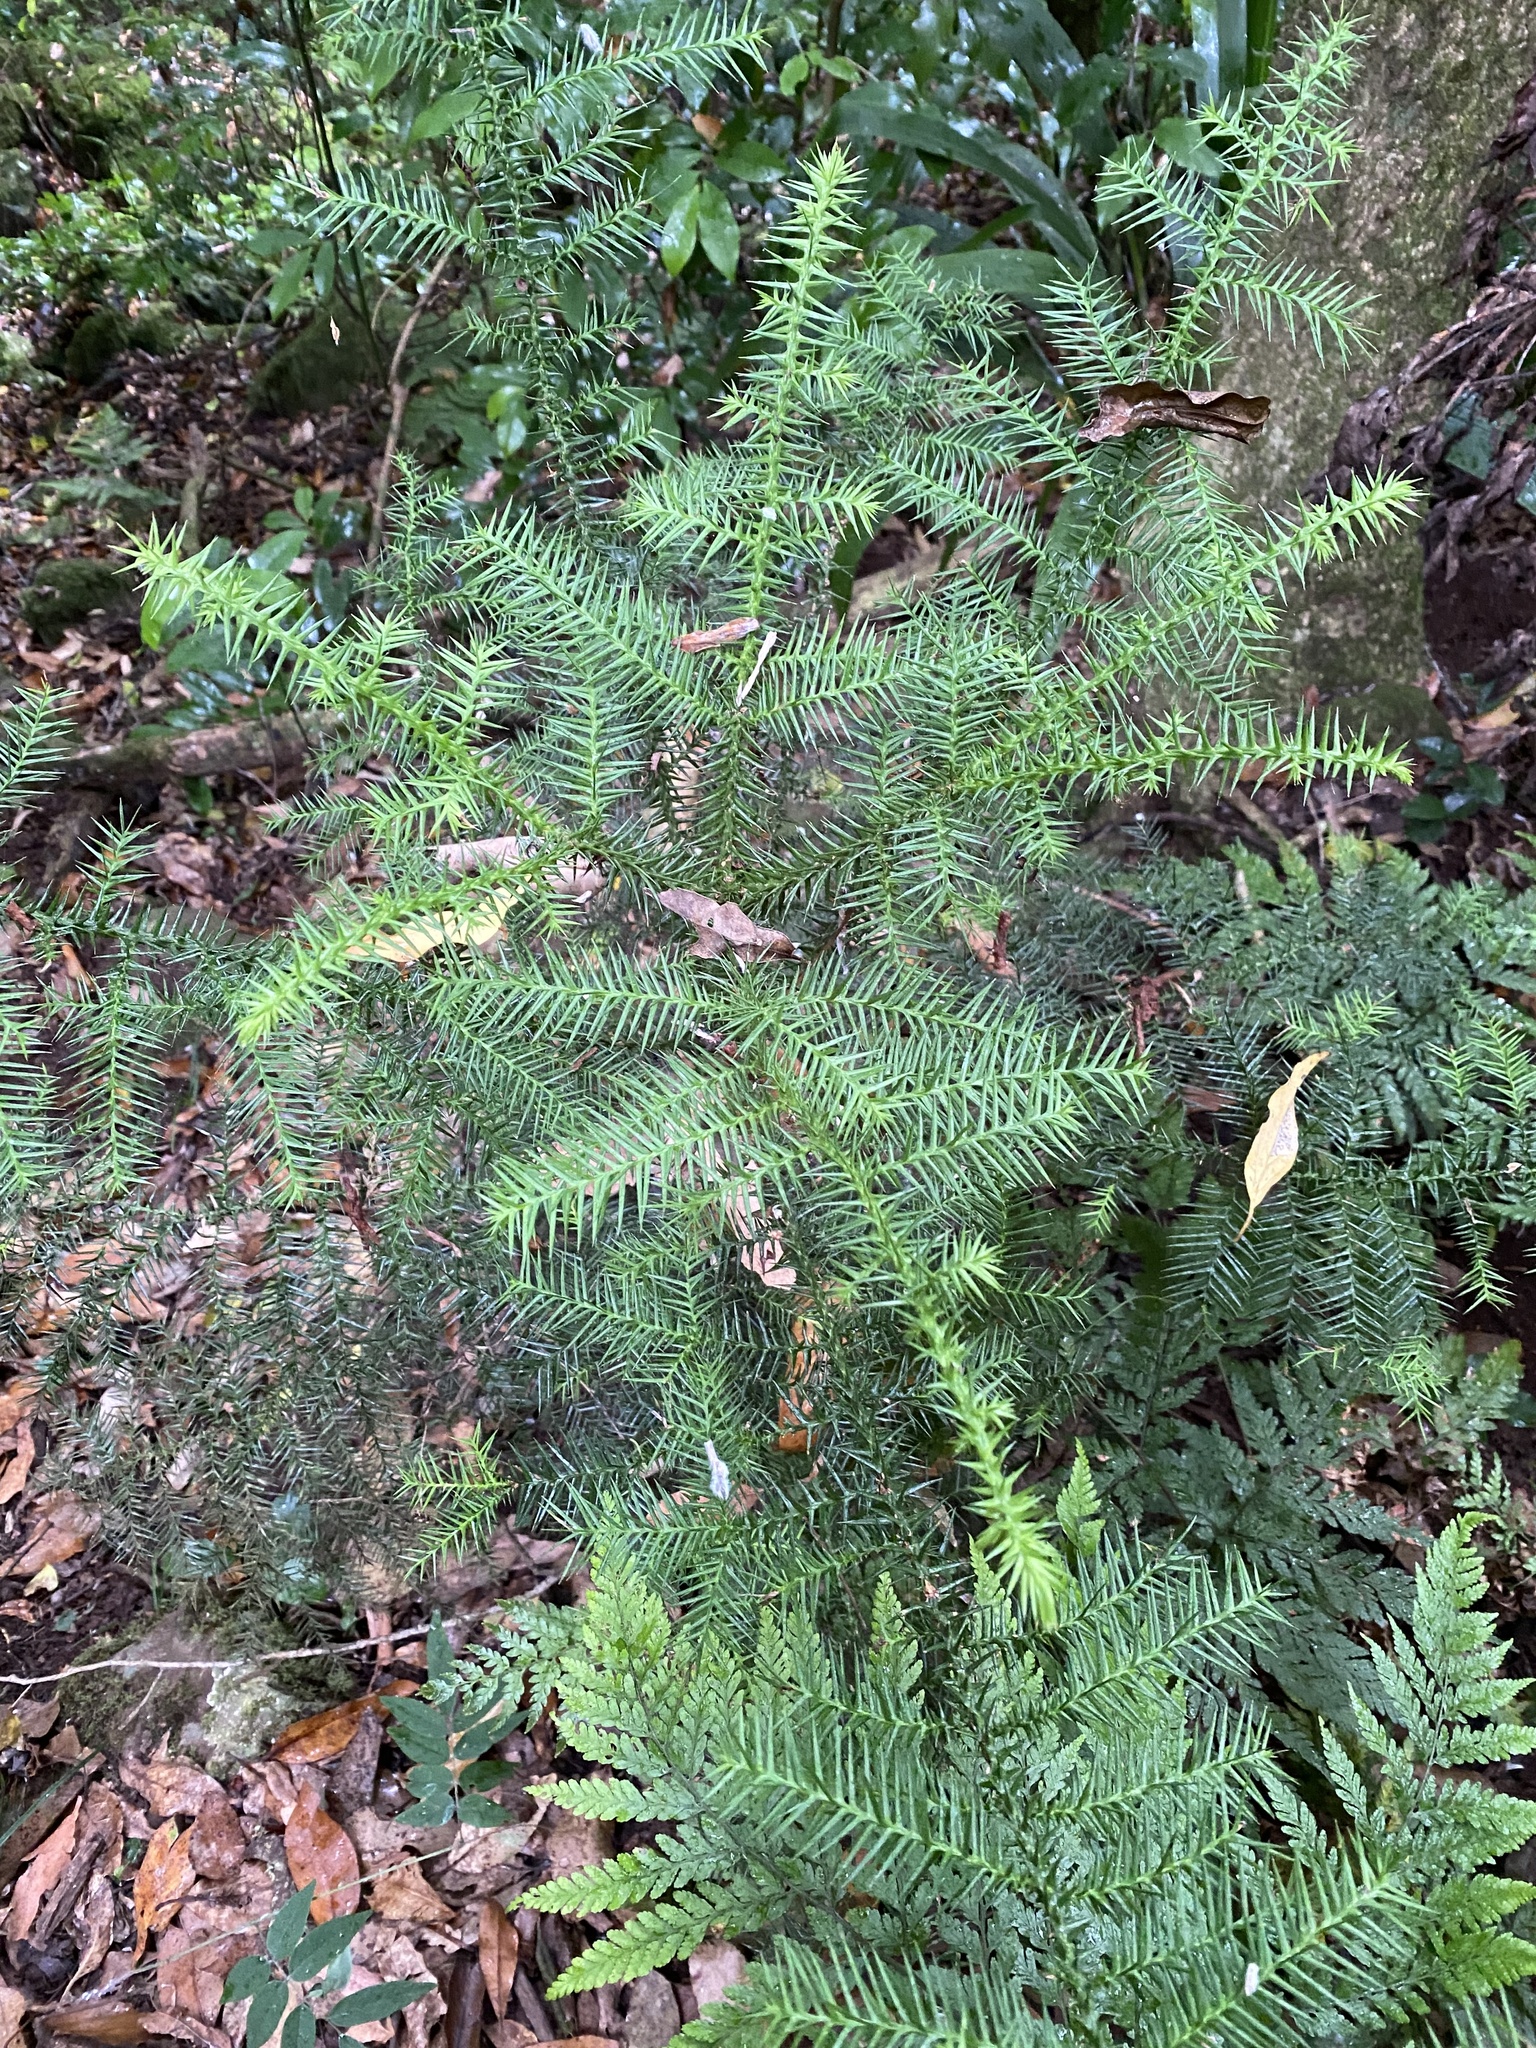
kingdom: Plantae
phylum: Tracheophyta
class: Pinopsida
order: Pinales
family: Araucariaceae
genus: Araucaria
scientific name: Araucaria cunninghamii
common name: Colonial pine
